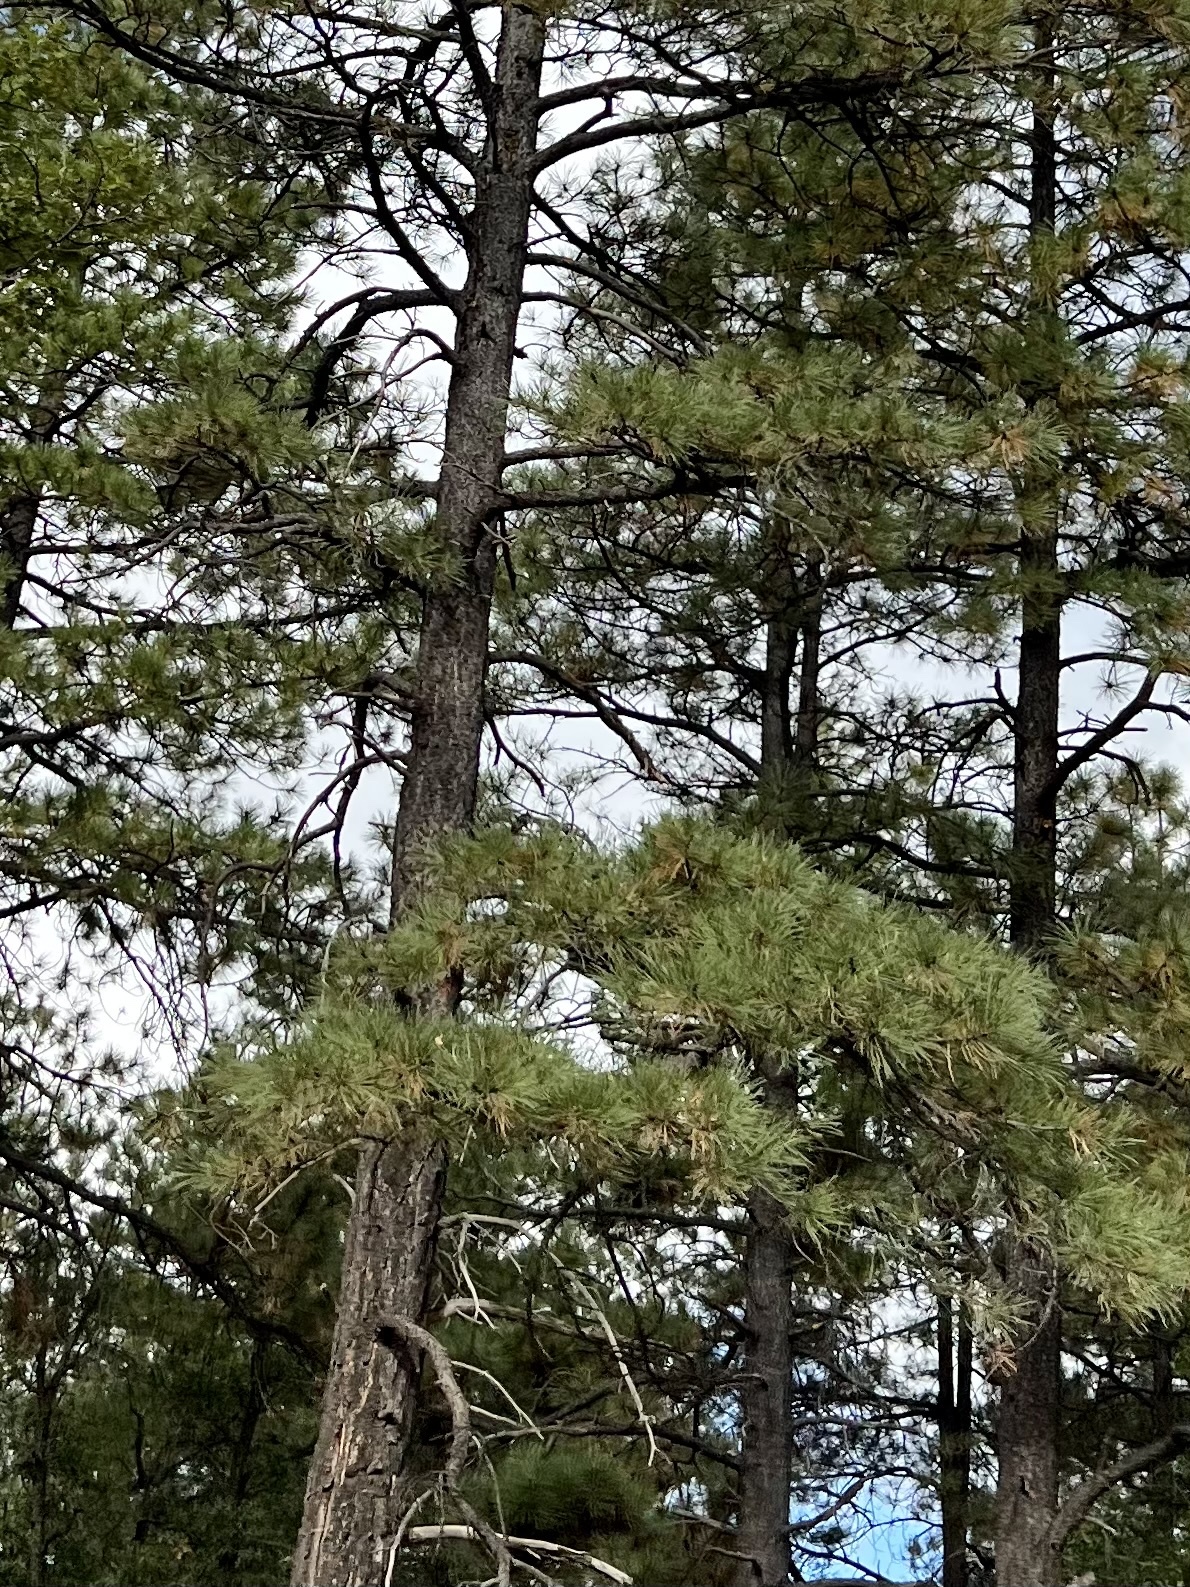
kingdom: Plantae
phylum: Tracheophyta
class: Pinopsida
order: Pinales
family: Pinaceae
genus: Pinus
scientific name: Pinus ponderosa
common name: Western yellow-pine
